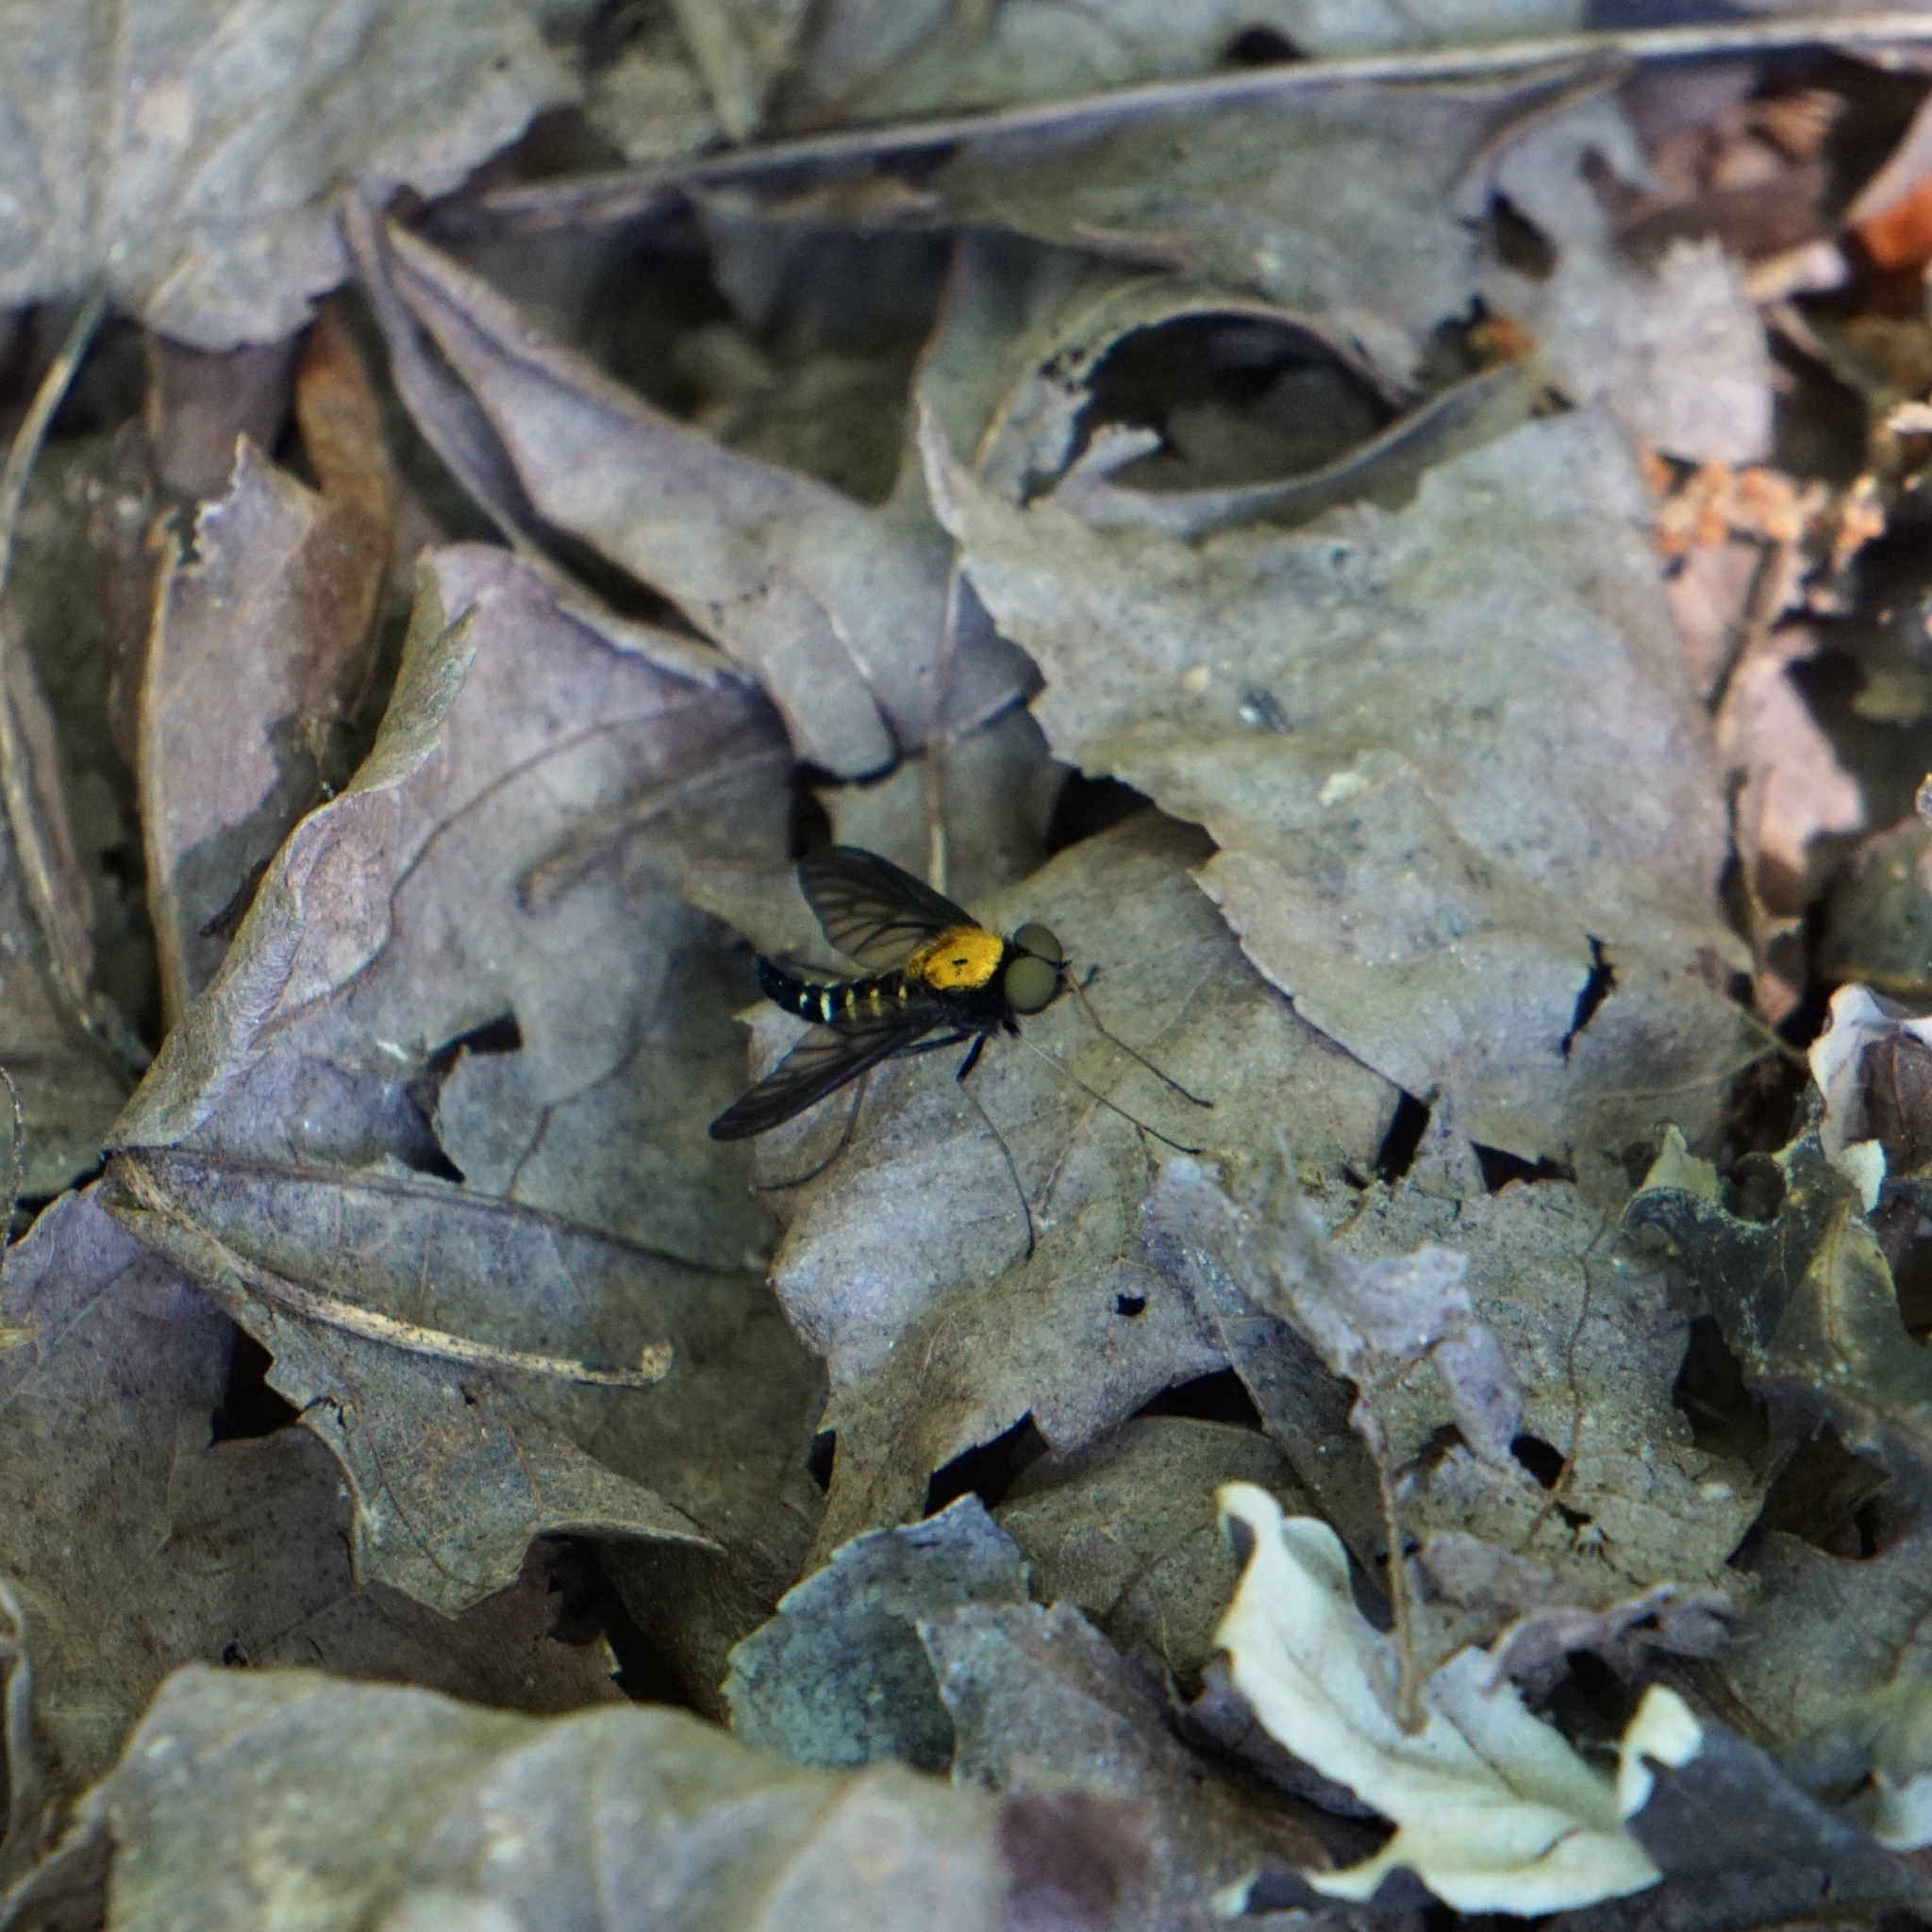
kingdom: Animalia
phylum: Arthropoda
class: Insecta
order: Diptera
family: Rhagionidae
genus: Chrysopilus
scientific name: Chrysopilus thoracicus
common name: Golden-backed snipe fly
